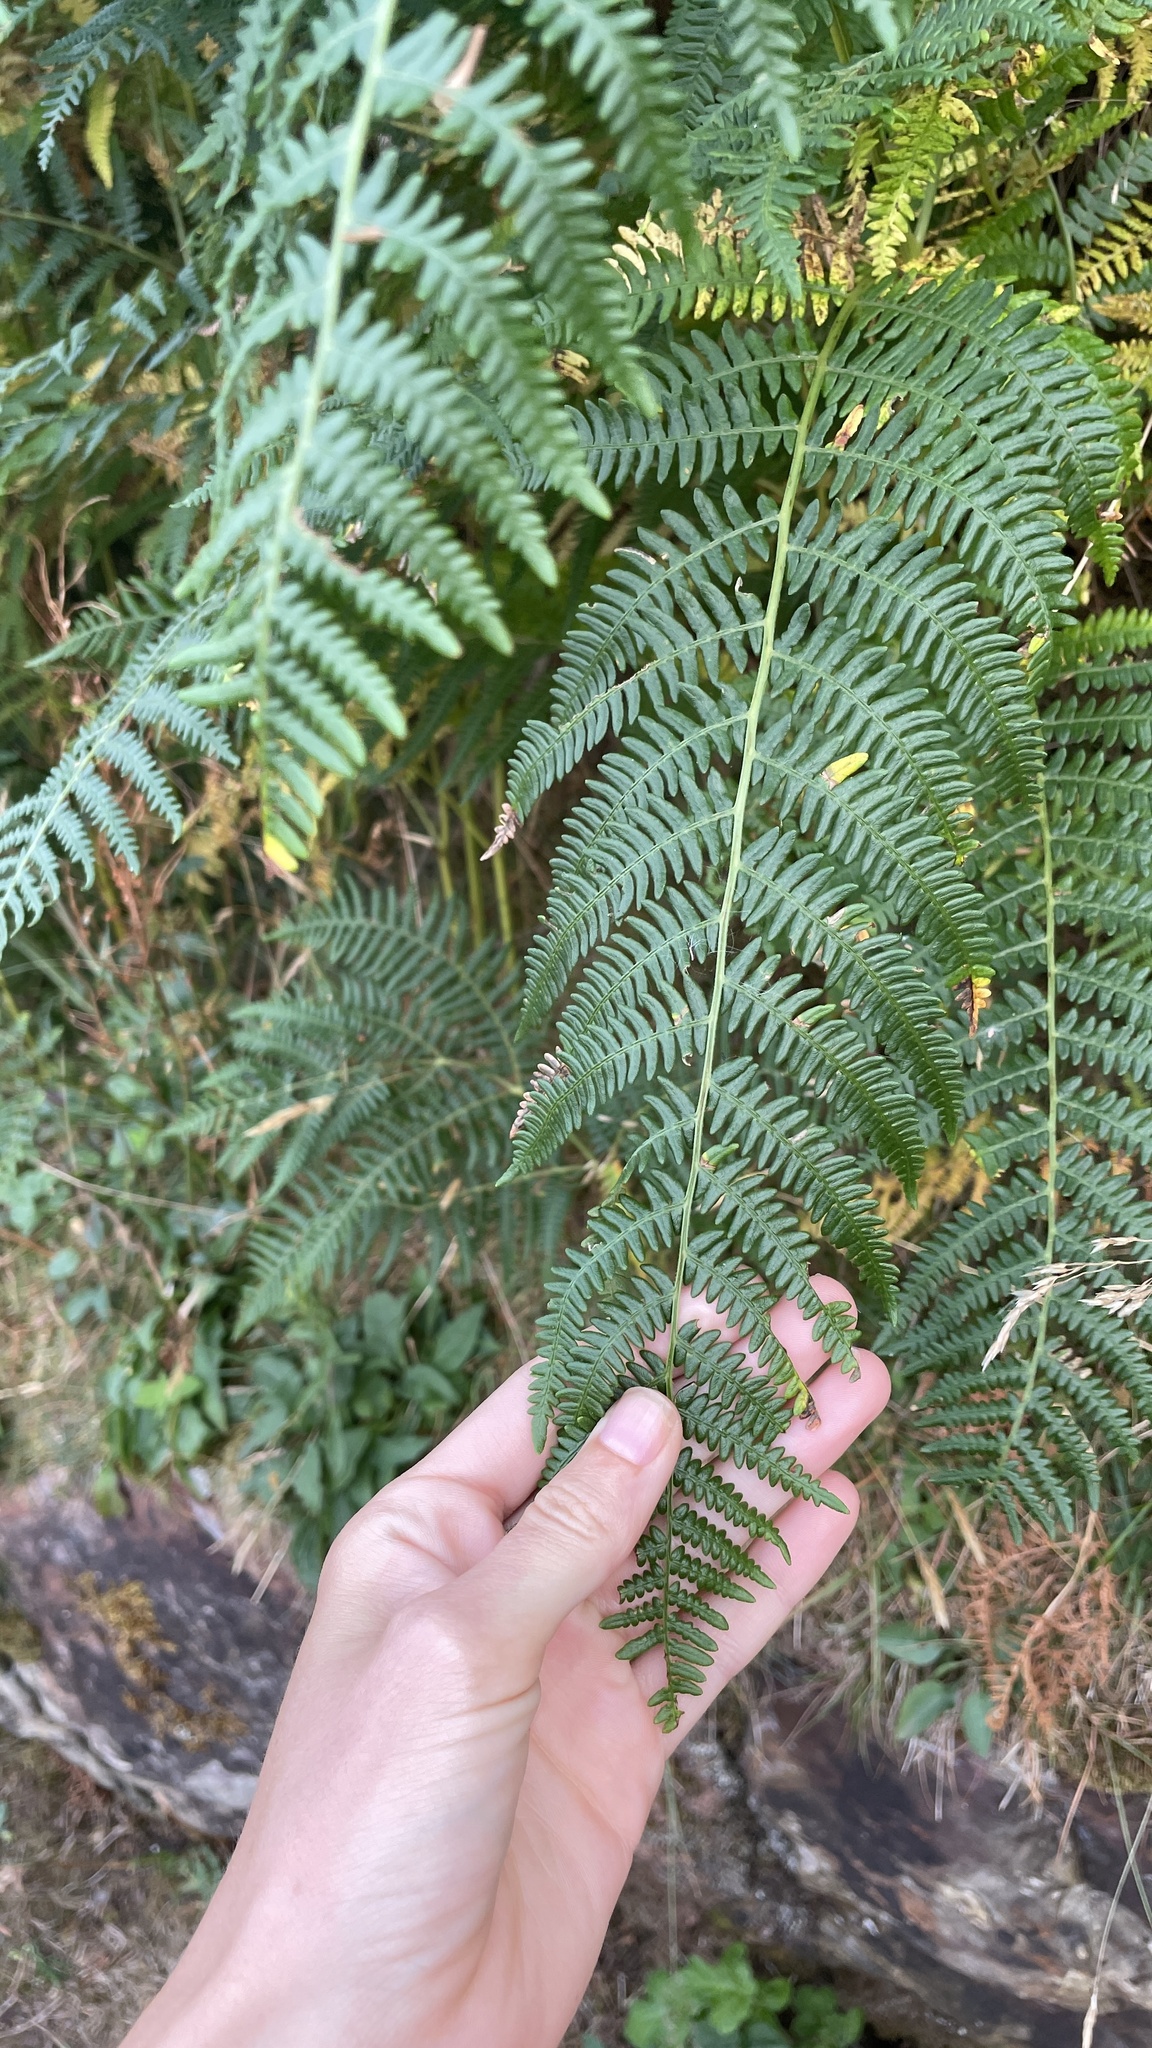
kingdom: Plantae
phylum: Tracheophyta
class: Polypodiopsida
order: Polypodiales
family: Dennstaedtiaceae
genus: Pteridium
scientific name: Pteridium aquilinum
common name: Bracken
